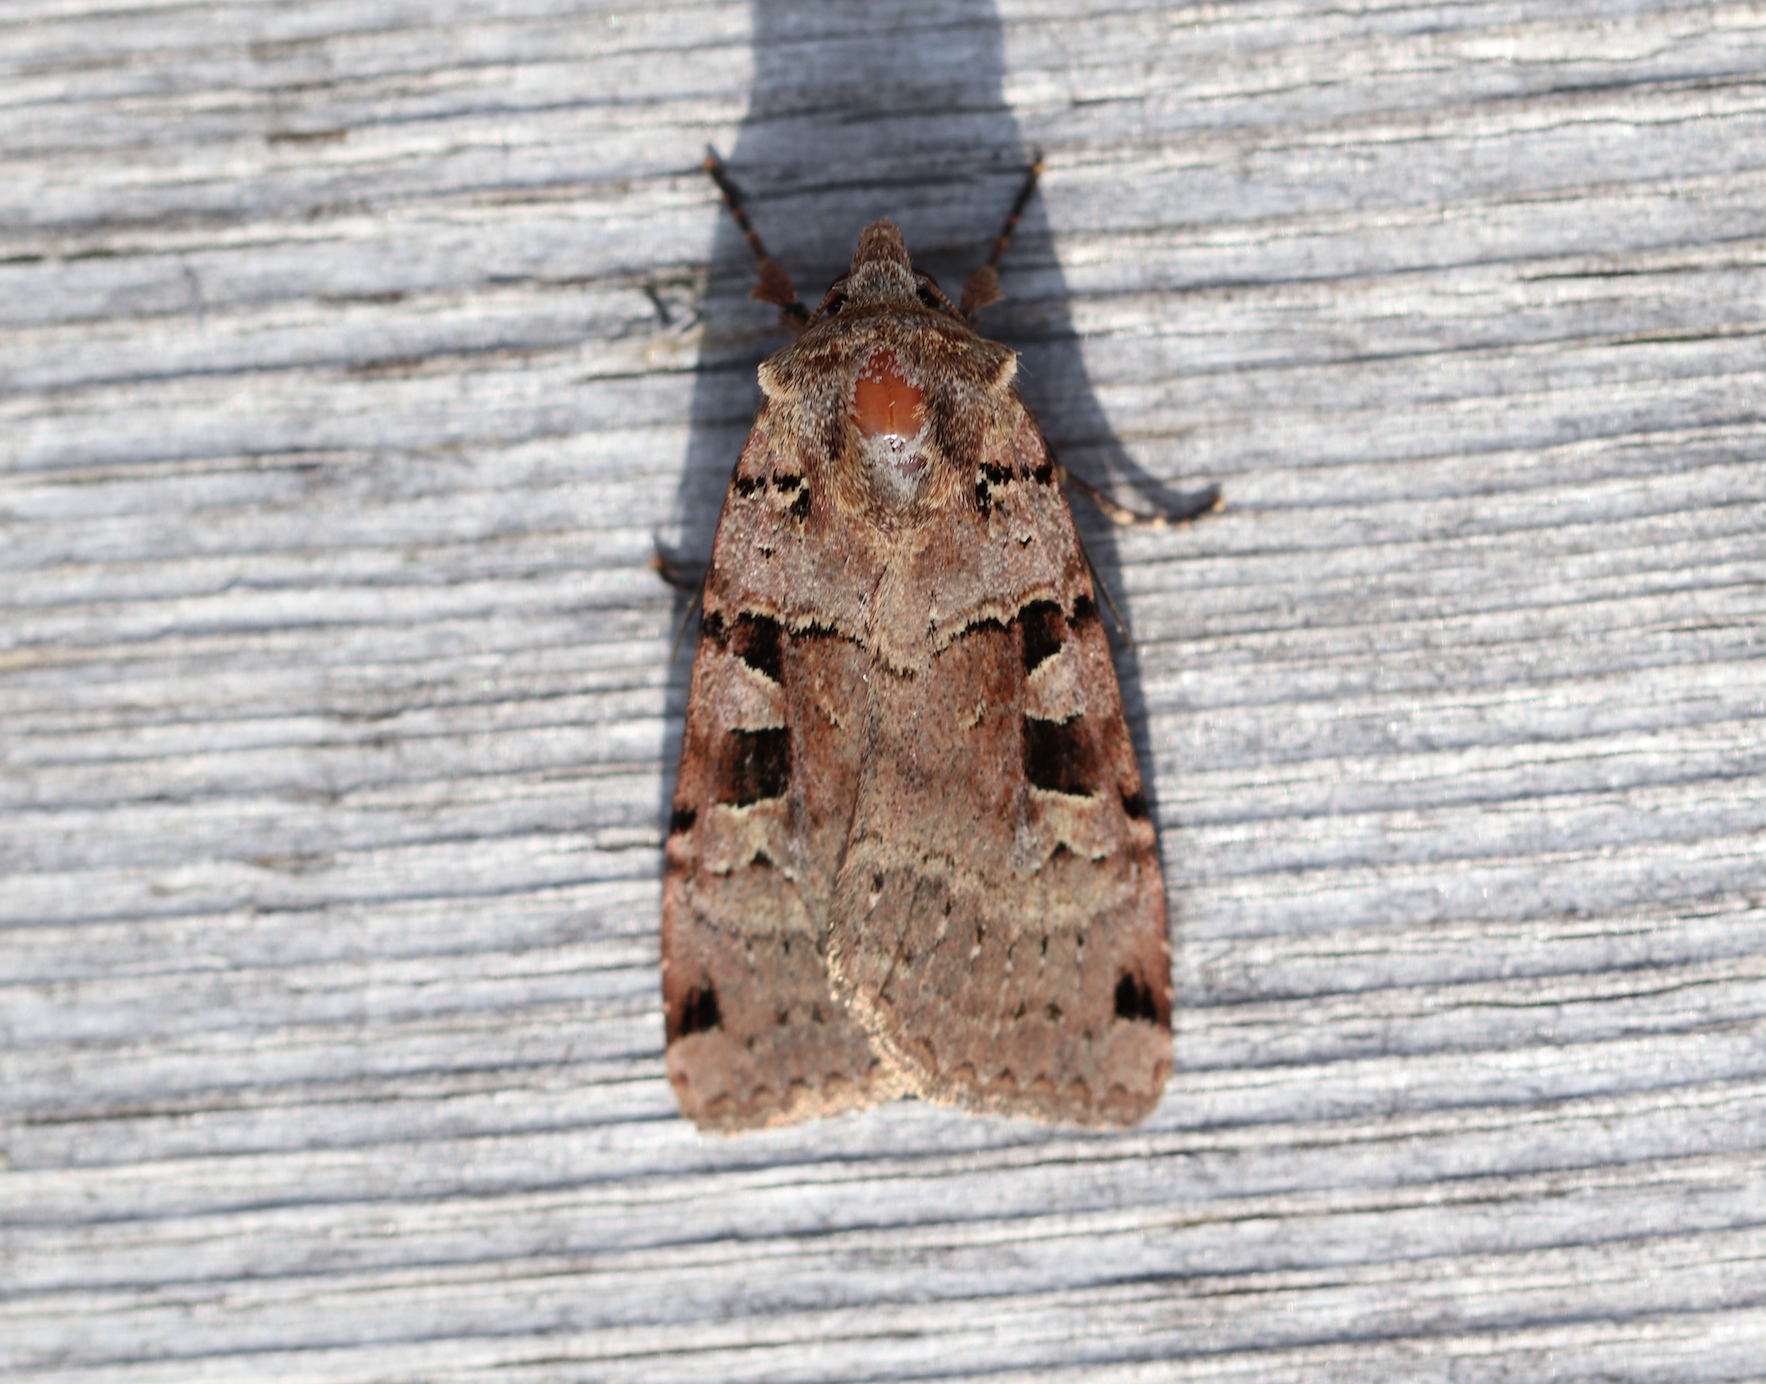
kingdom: Animalia
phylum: Arthropoda
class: Insecta
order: Lepidoptera
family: Noctuidae
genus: Xestia
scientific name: Xestia triangulum
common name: Double square-spot
